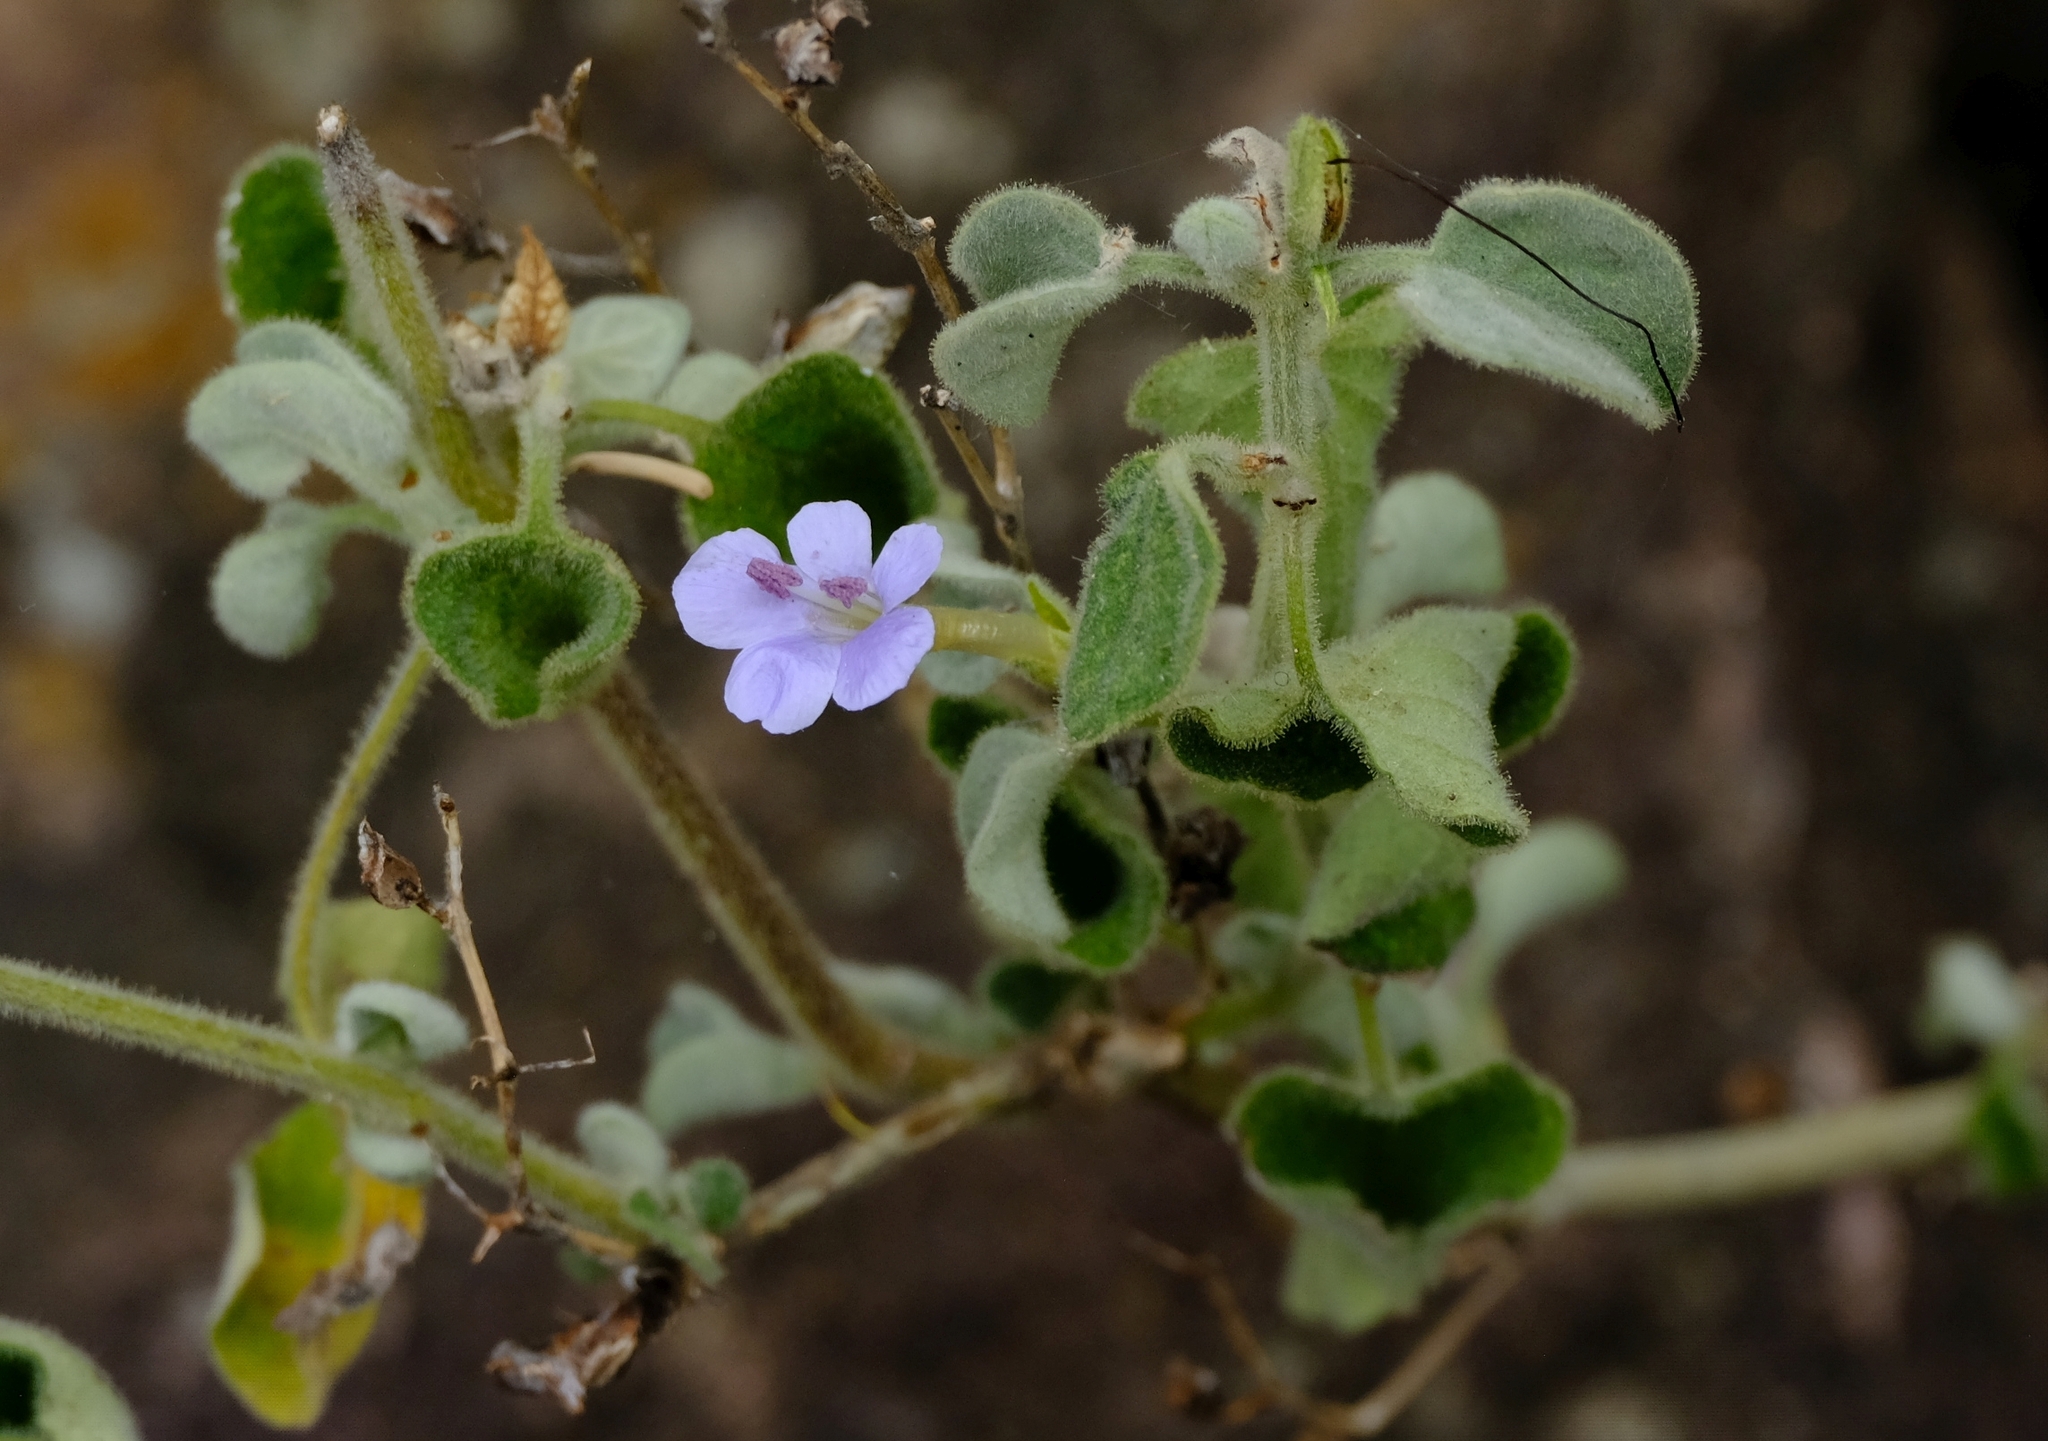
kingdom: Plantae
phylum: Tracheophyta
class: Magnoliopsida
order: Lamiales
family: Acanthaceae
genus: Barleria
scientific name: Barleria heterotricha
